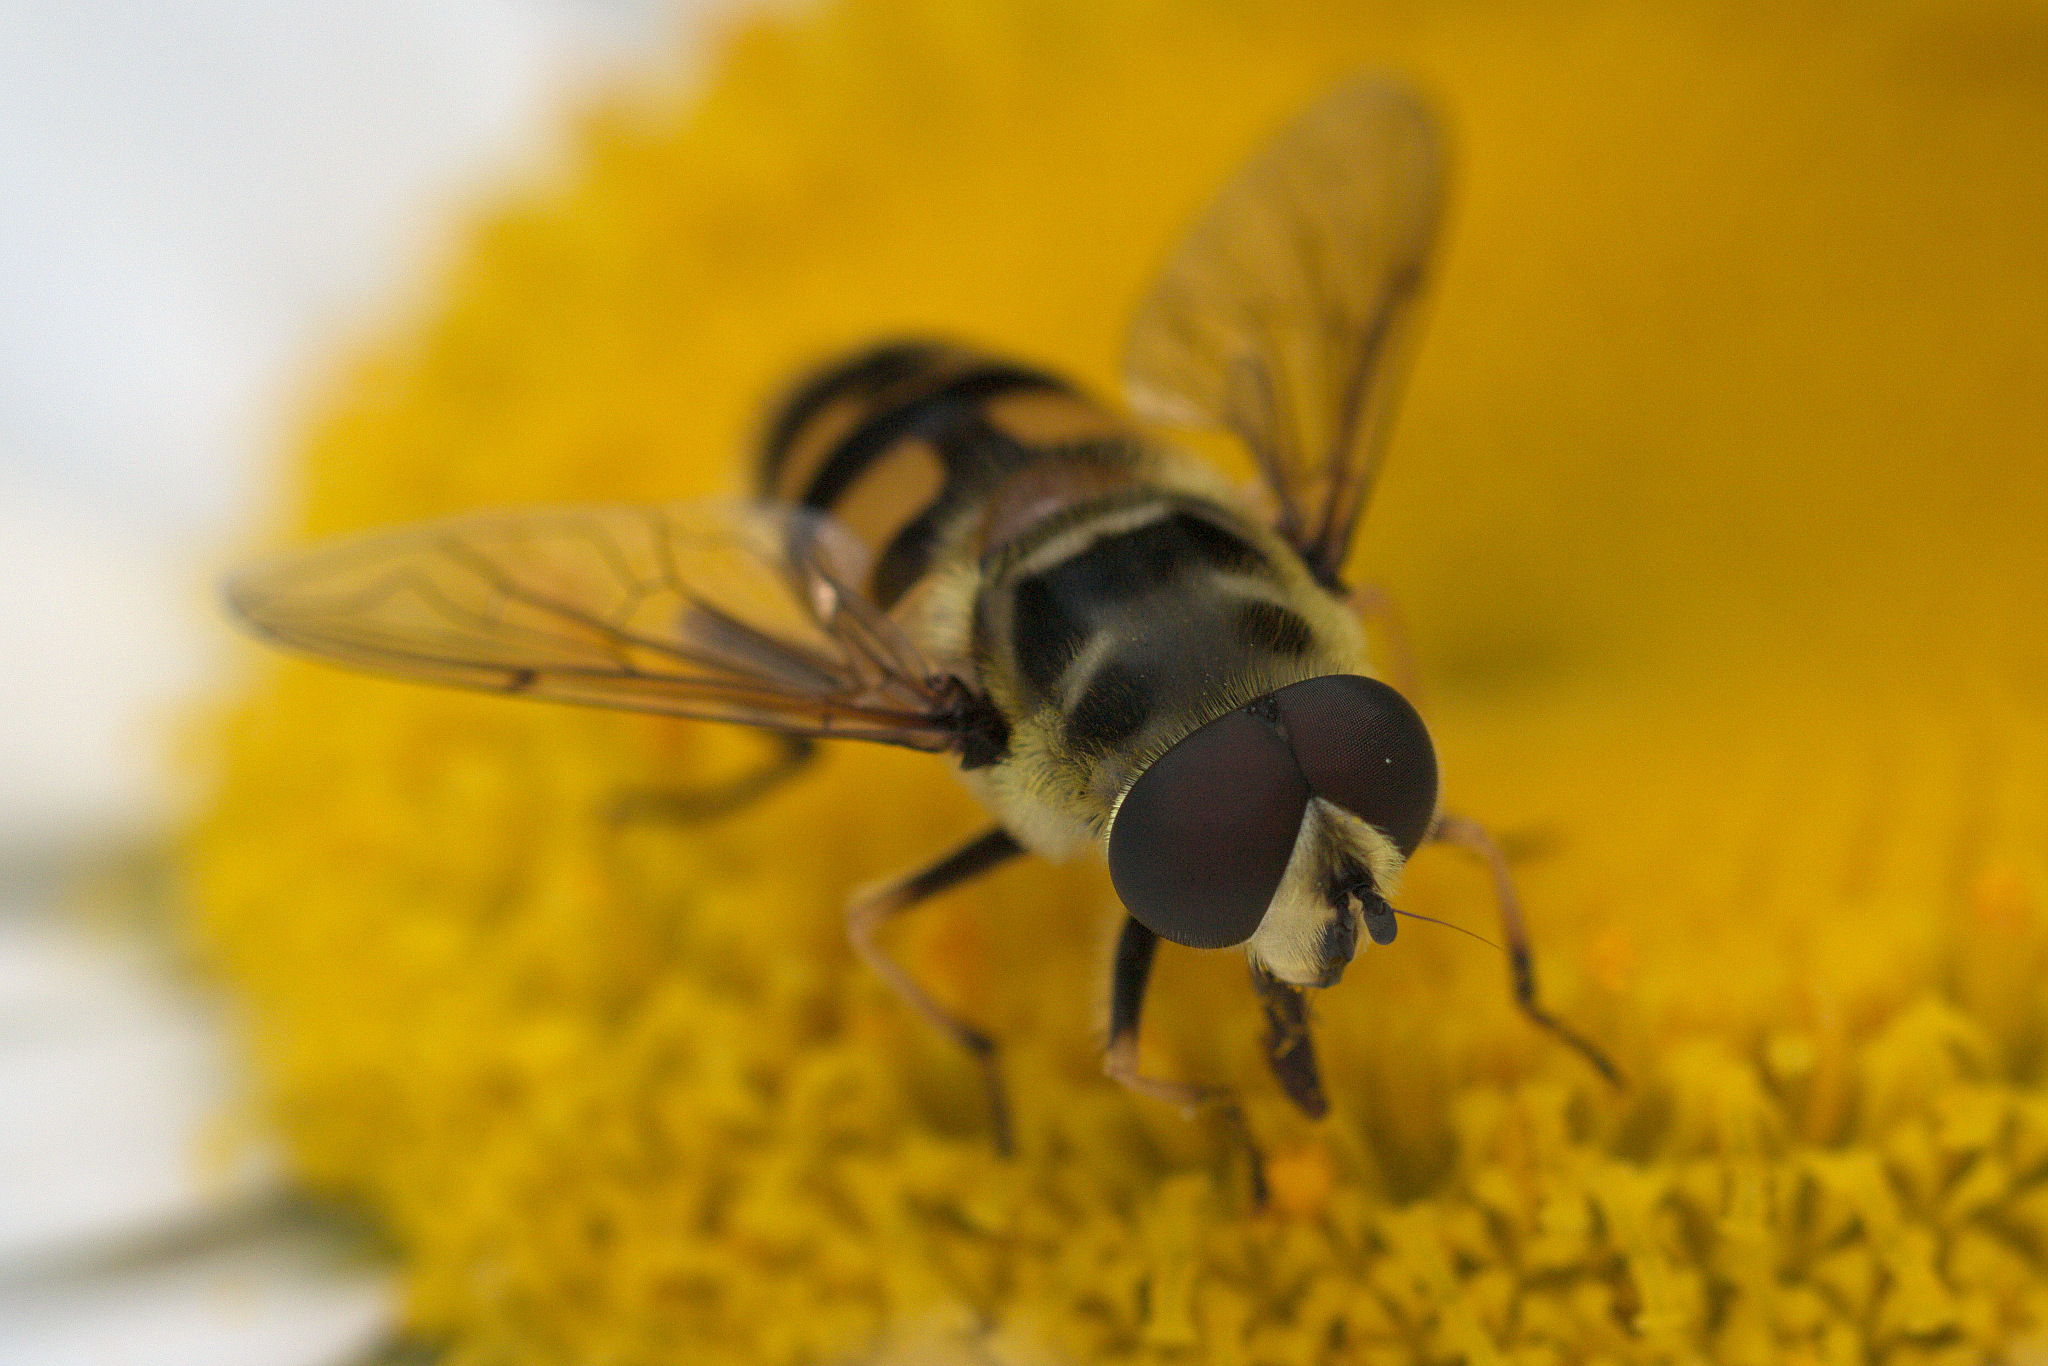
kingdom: Animalia
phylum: Arthropoda
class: Insecta
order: Diptera
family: Syrphidae
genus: Myathropa
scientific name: Myathropa florea
